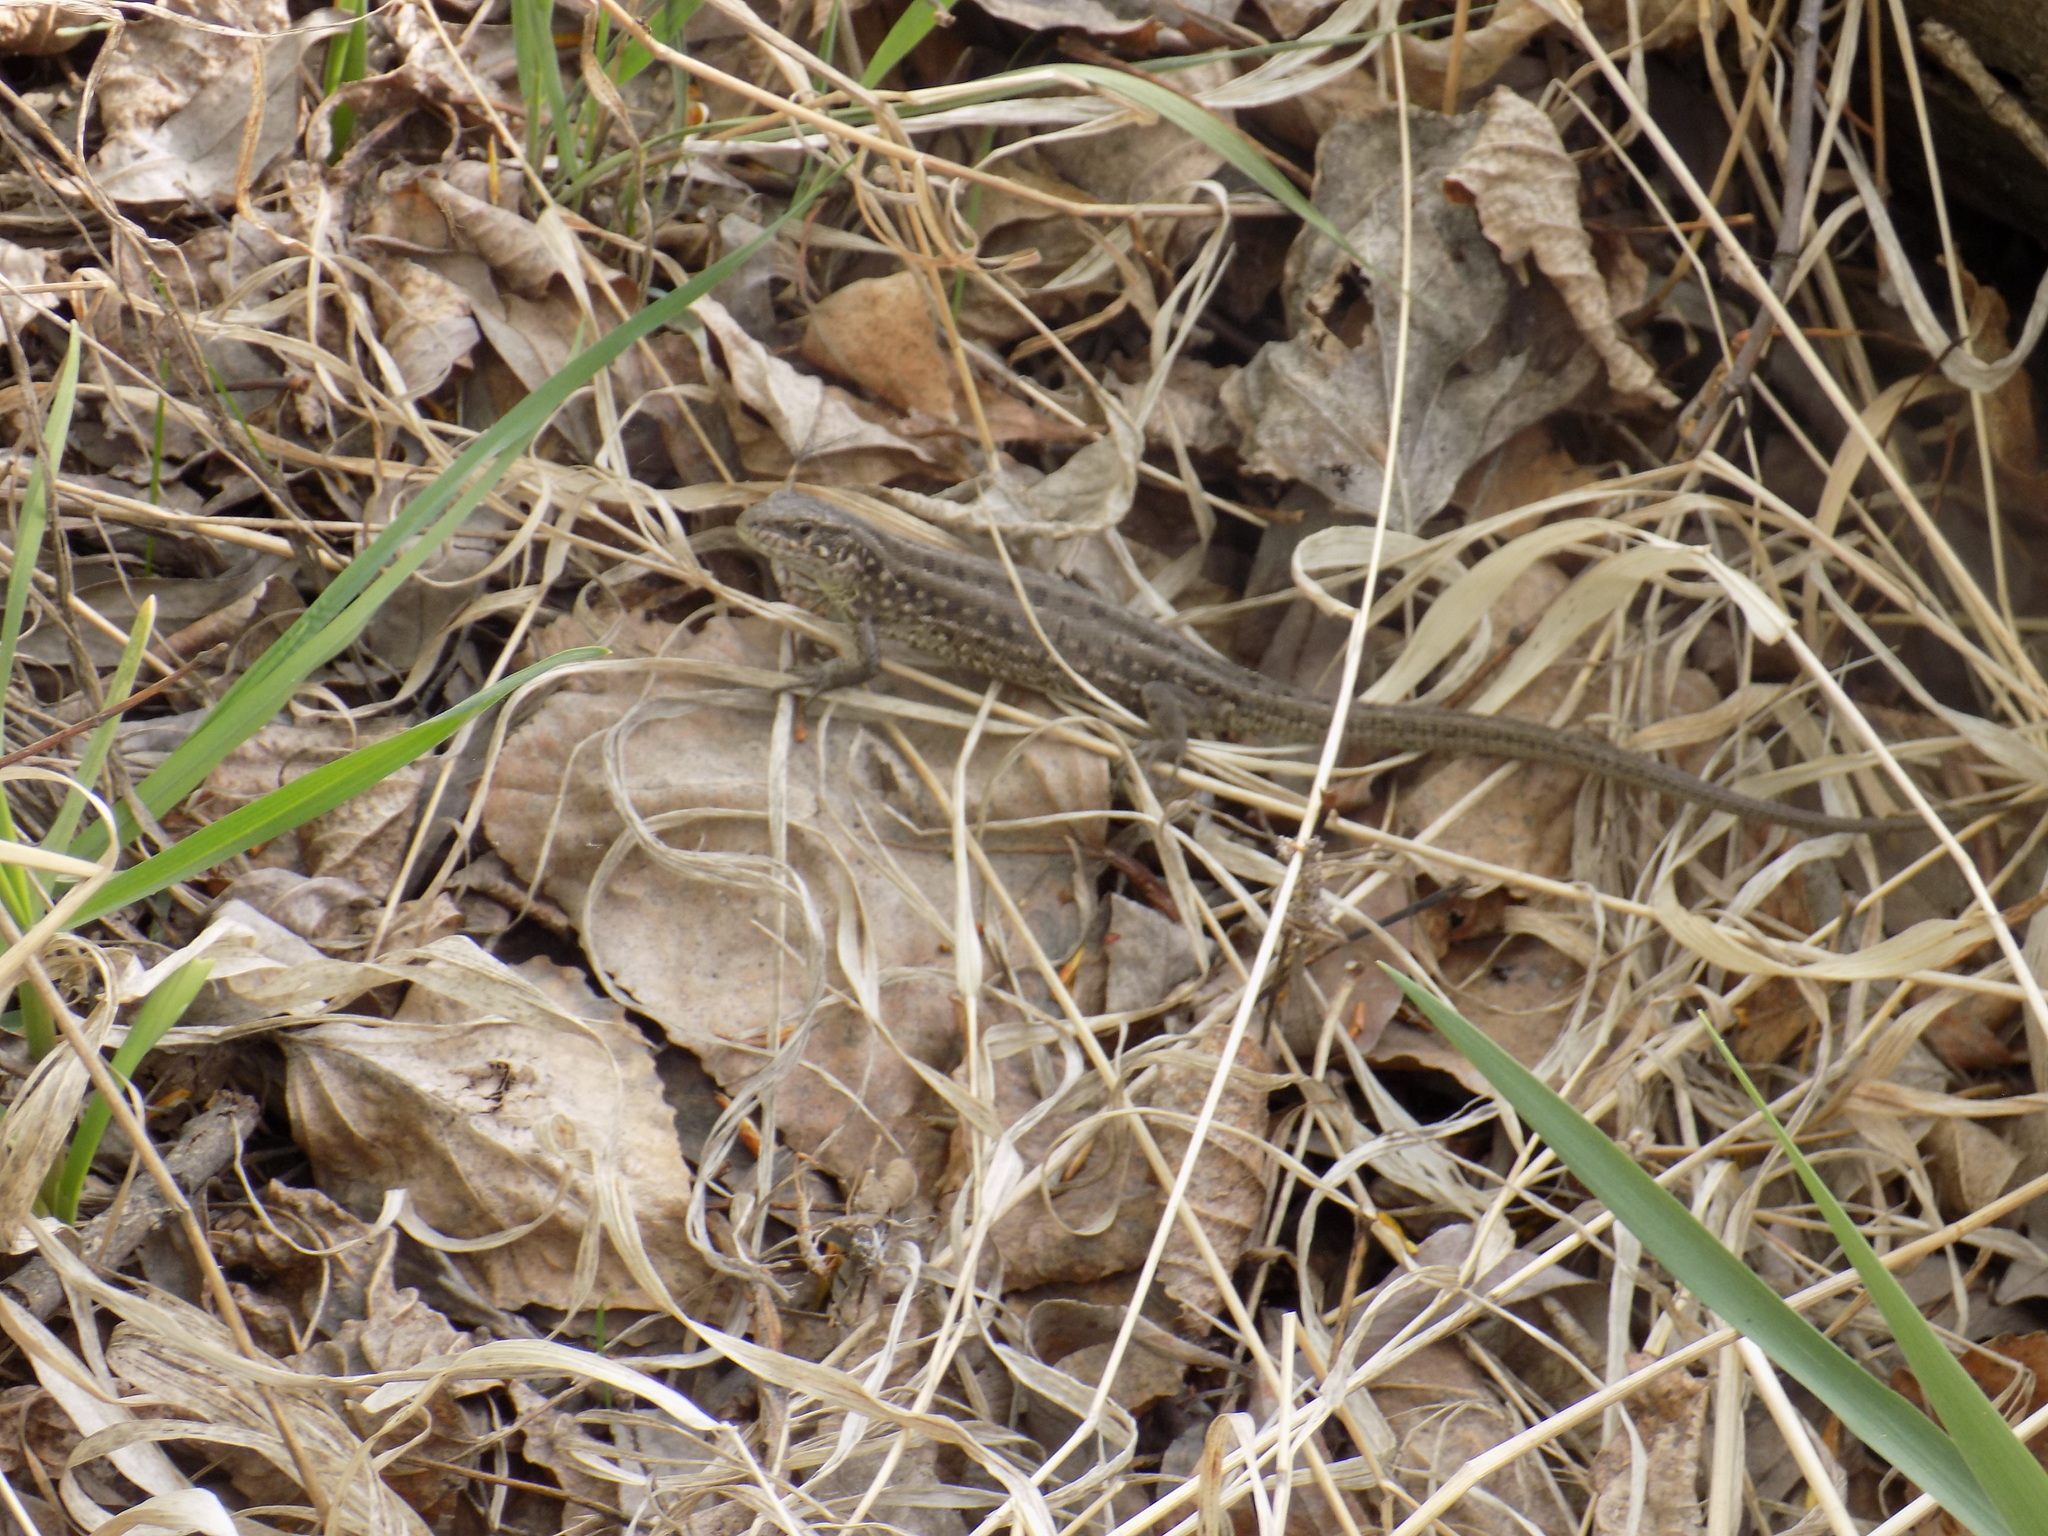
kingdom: Animalia
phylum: Chordata
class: Squamata
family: Lacertidae
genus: Lacerta
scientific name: Lacerta agilis
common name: Sand lizard
